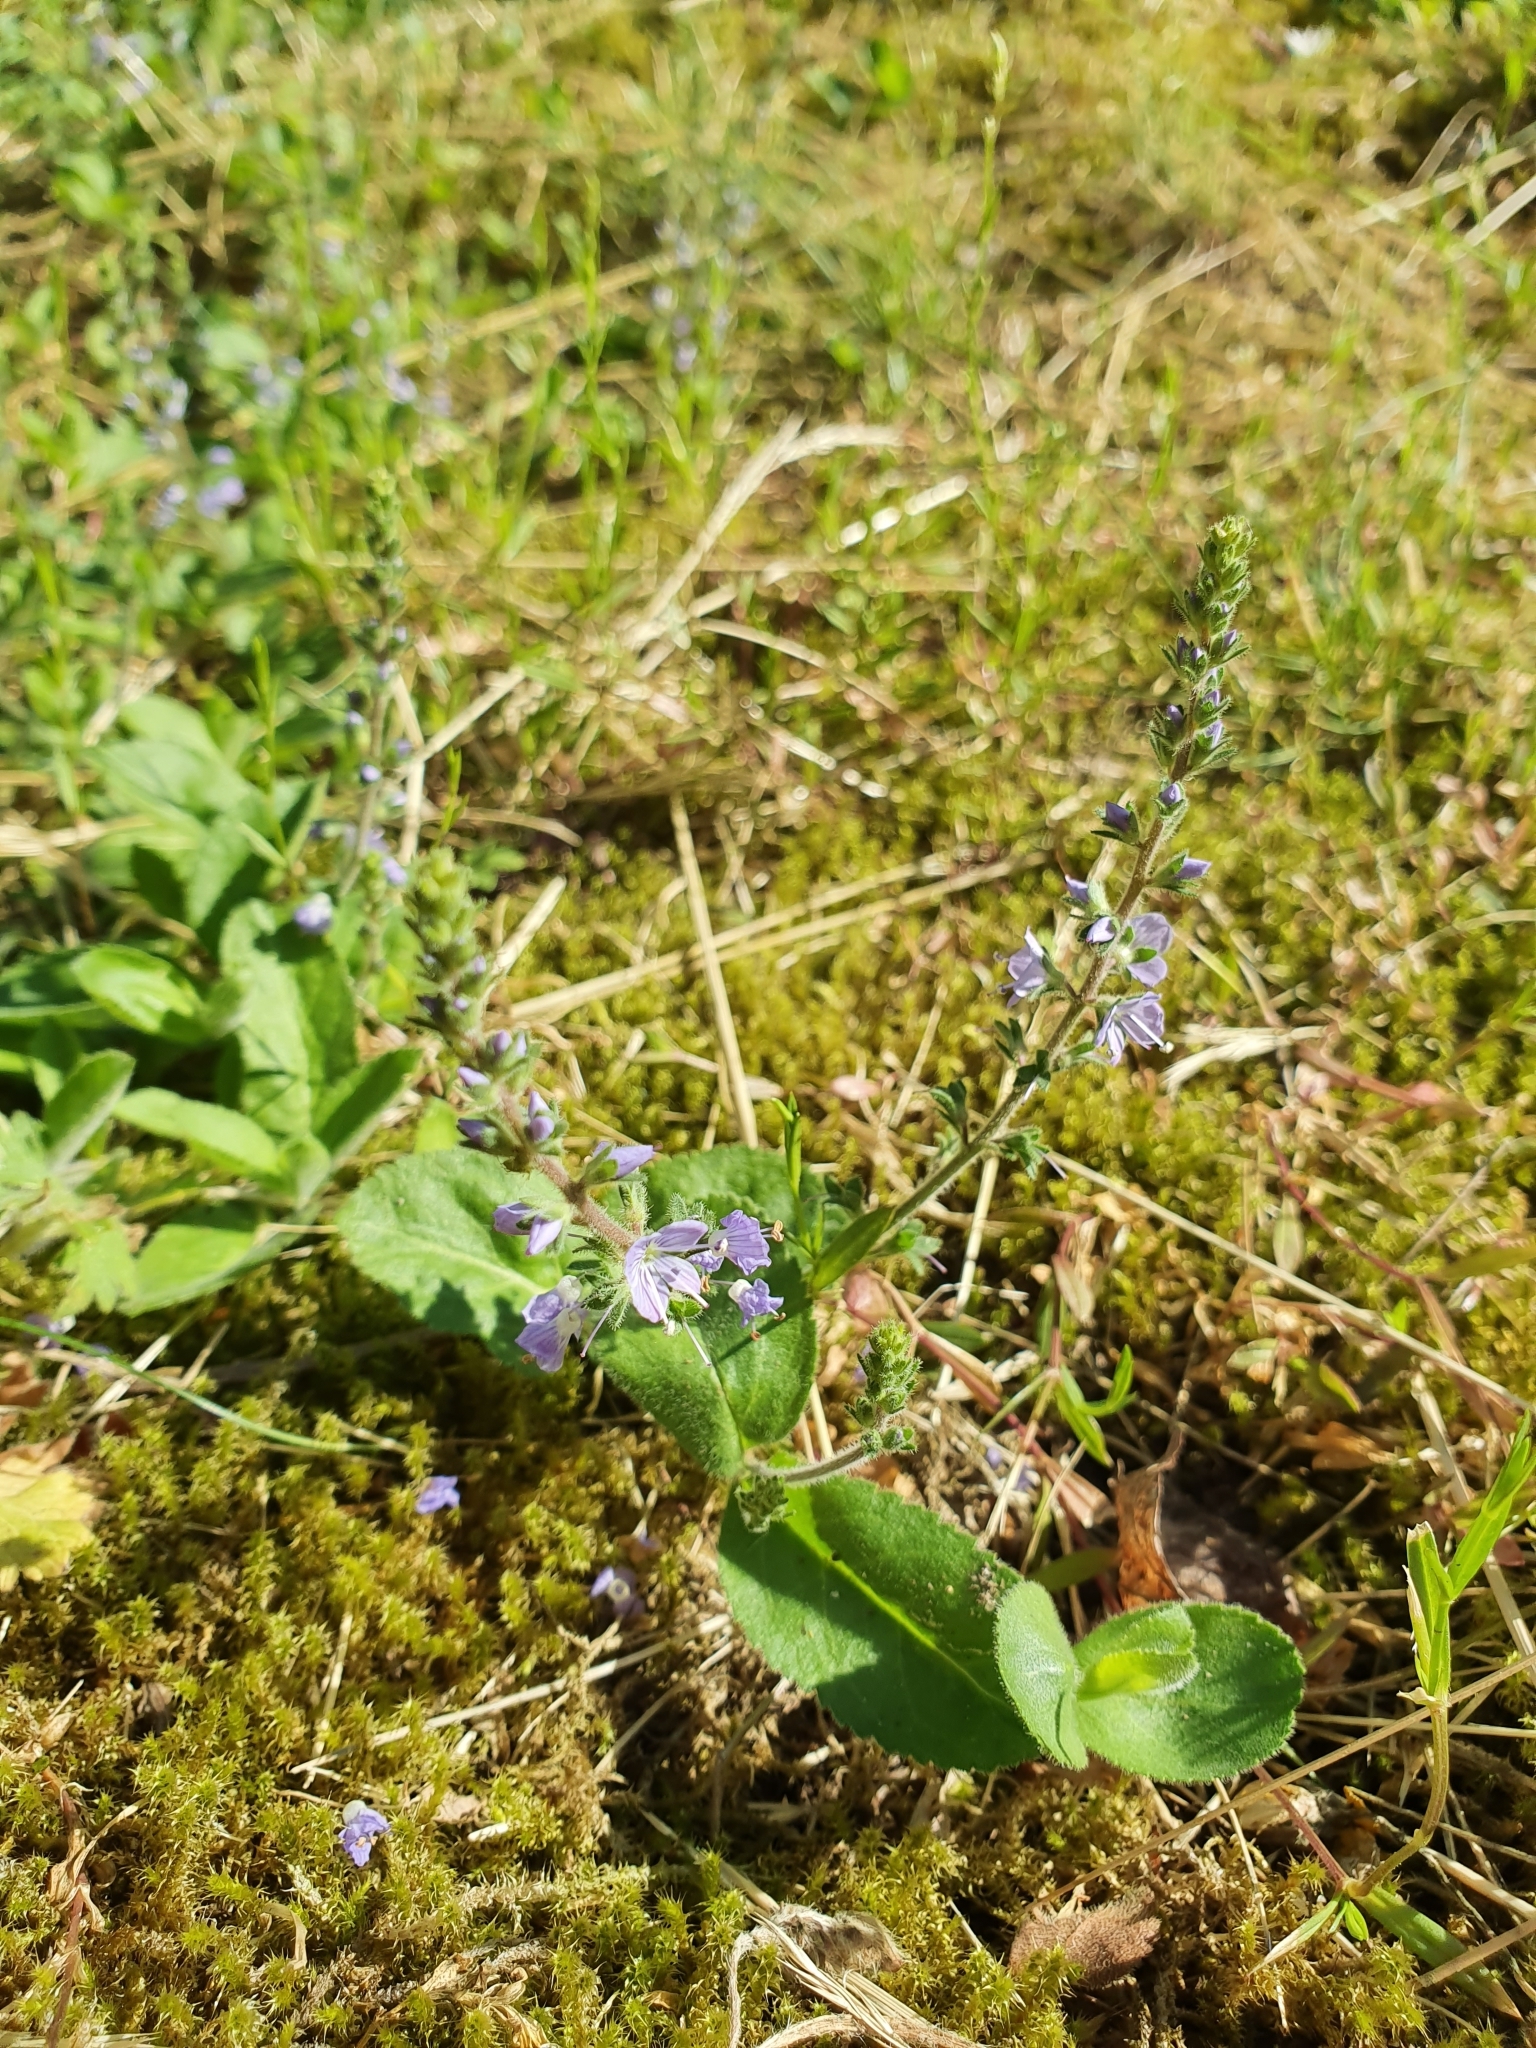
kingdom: Plantae
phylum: Tracheophyta
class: Magnoliopsida
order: Lamiales
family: Plantaginaceae
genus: Veronica
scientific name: Veronica officinalis
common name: Common speedwell
